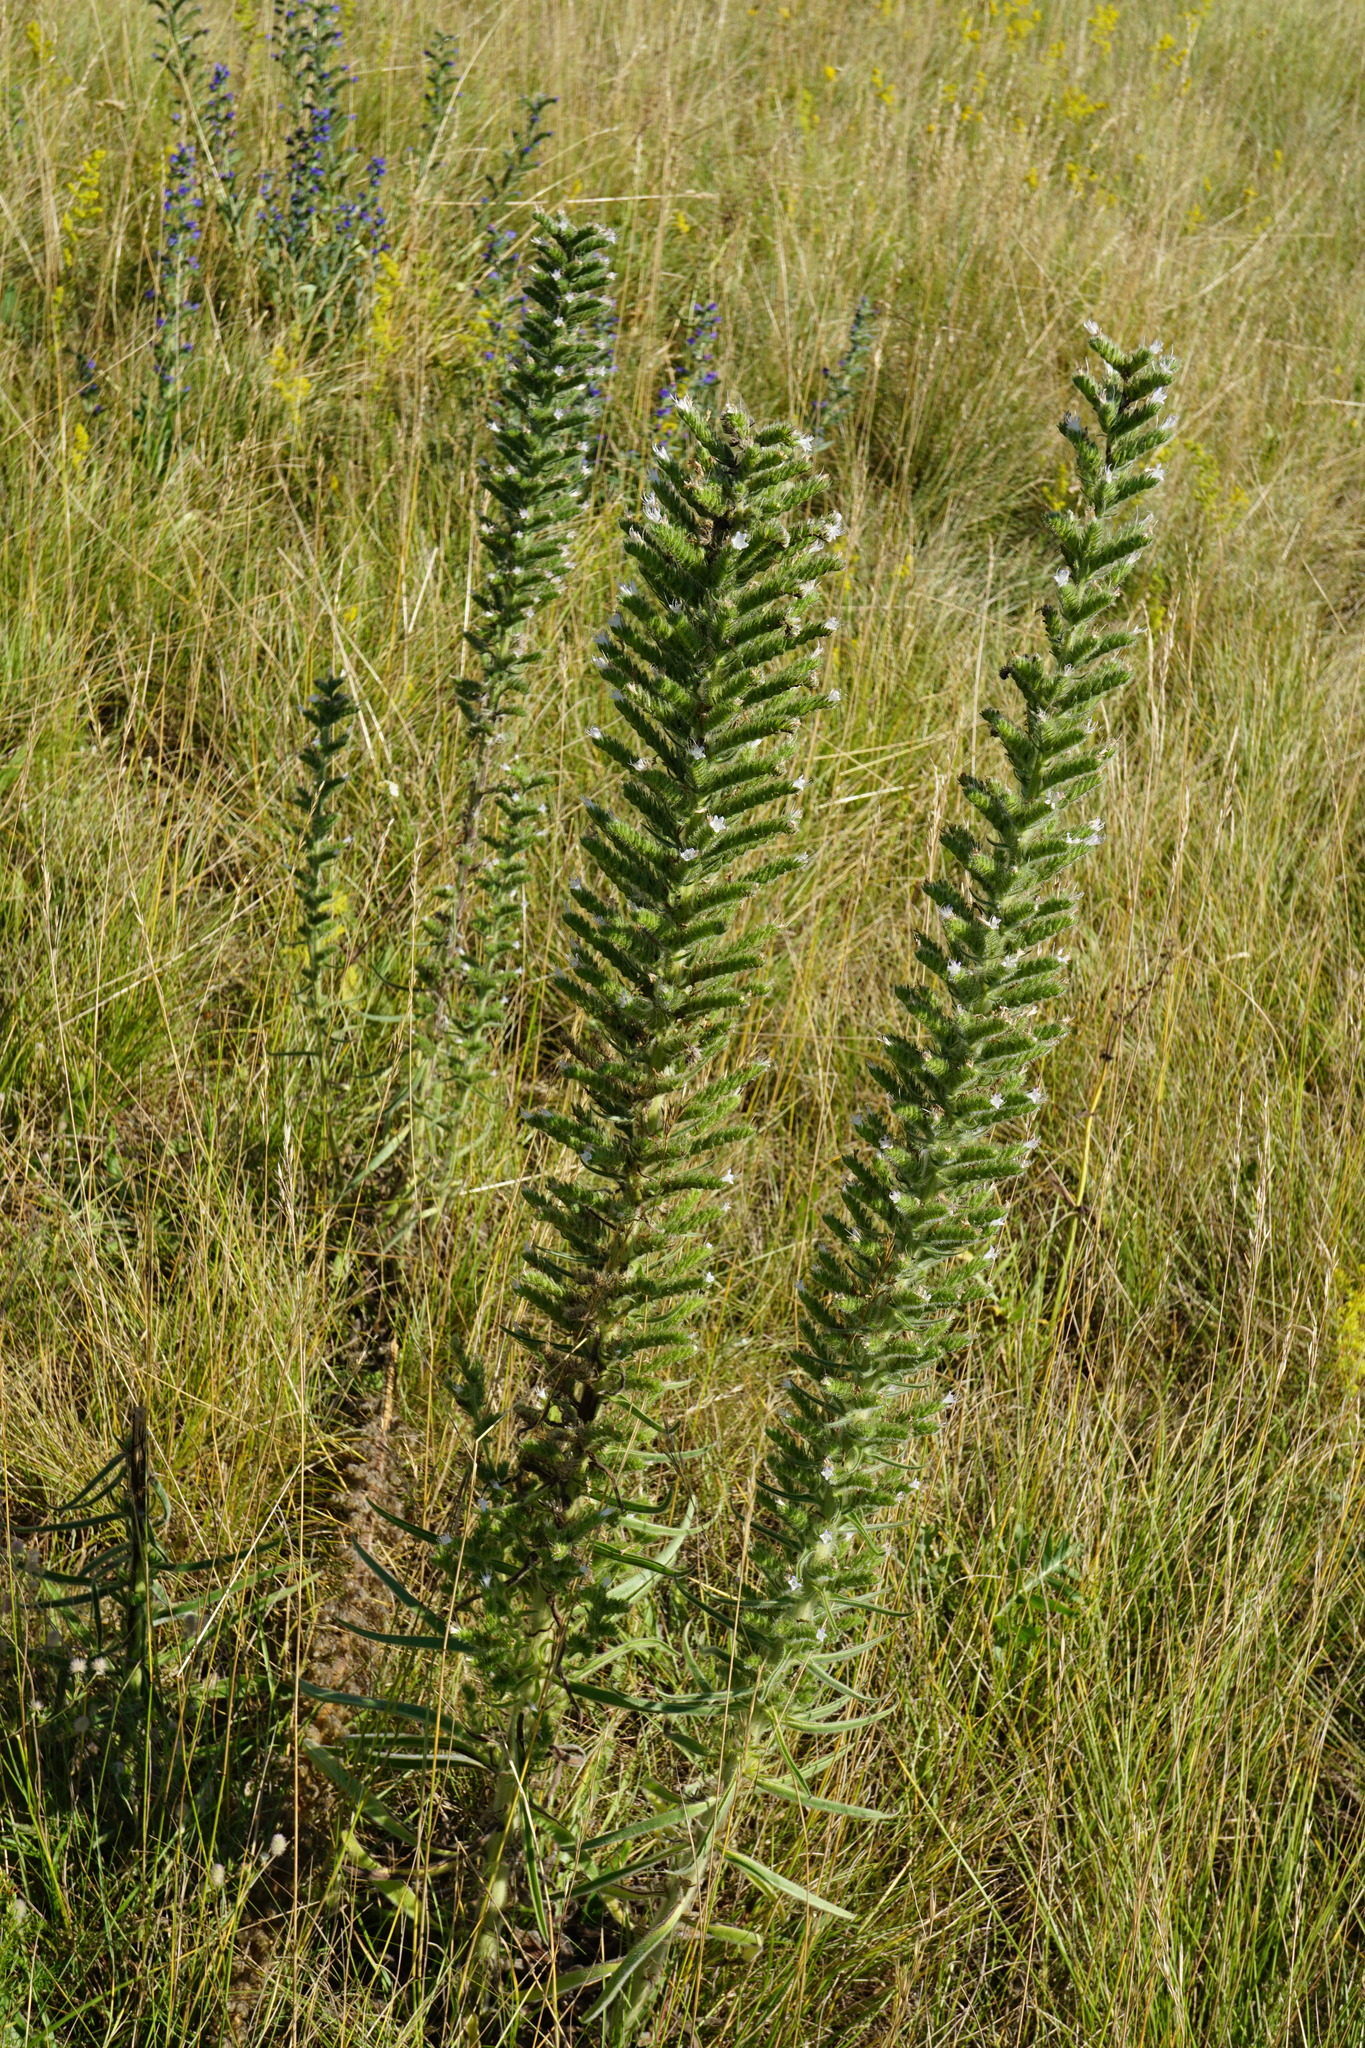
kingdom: Plantae
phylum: Tracheophyta
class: Magnoliopsida
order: Boraginales
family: Boraginaceae
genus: Echium
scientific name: Echium italicum
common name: Italian viper's bugloss
